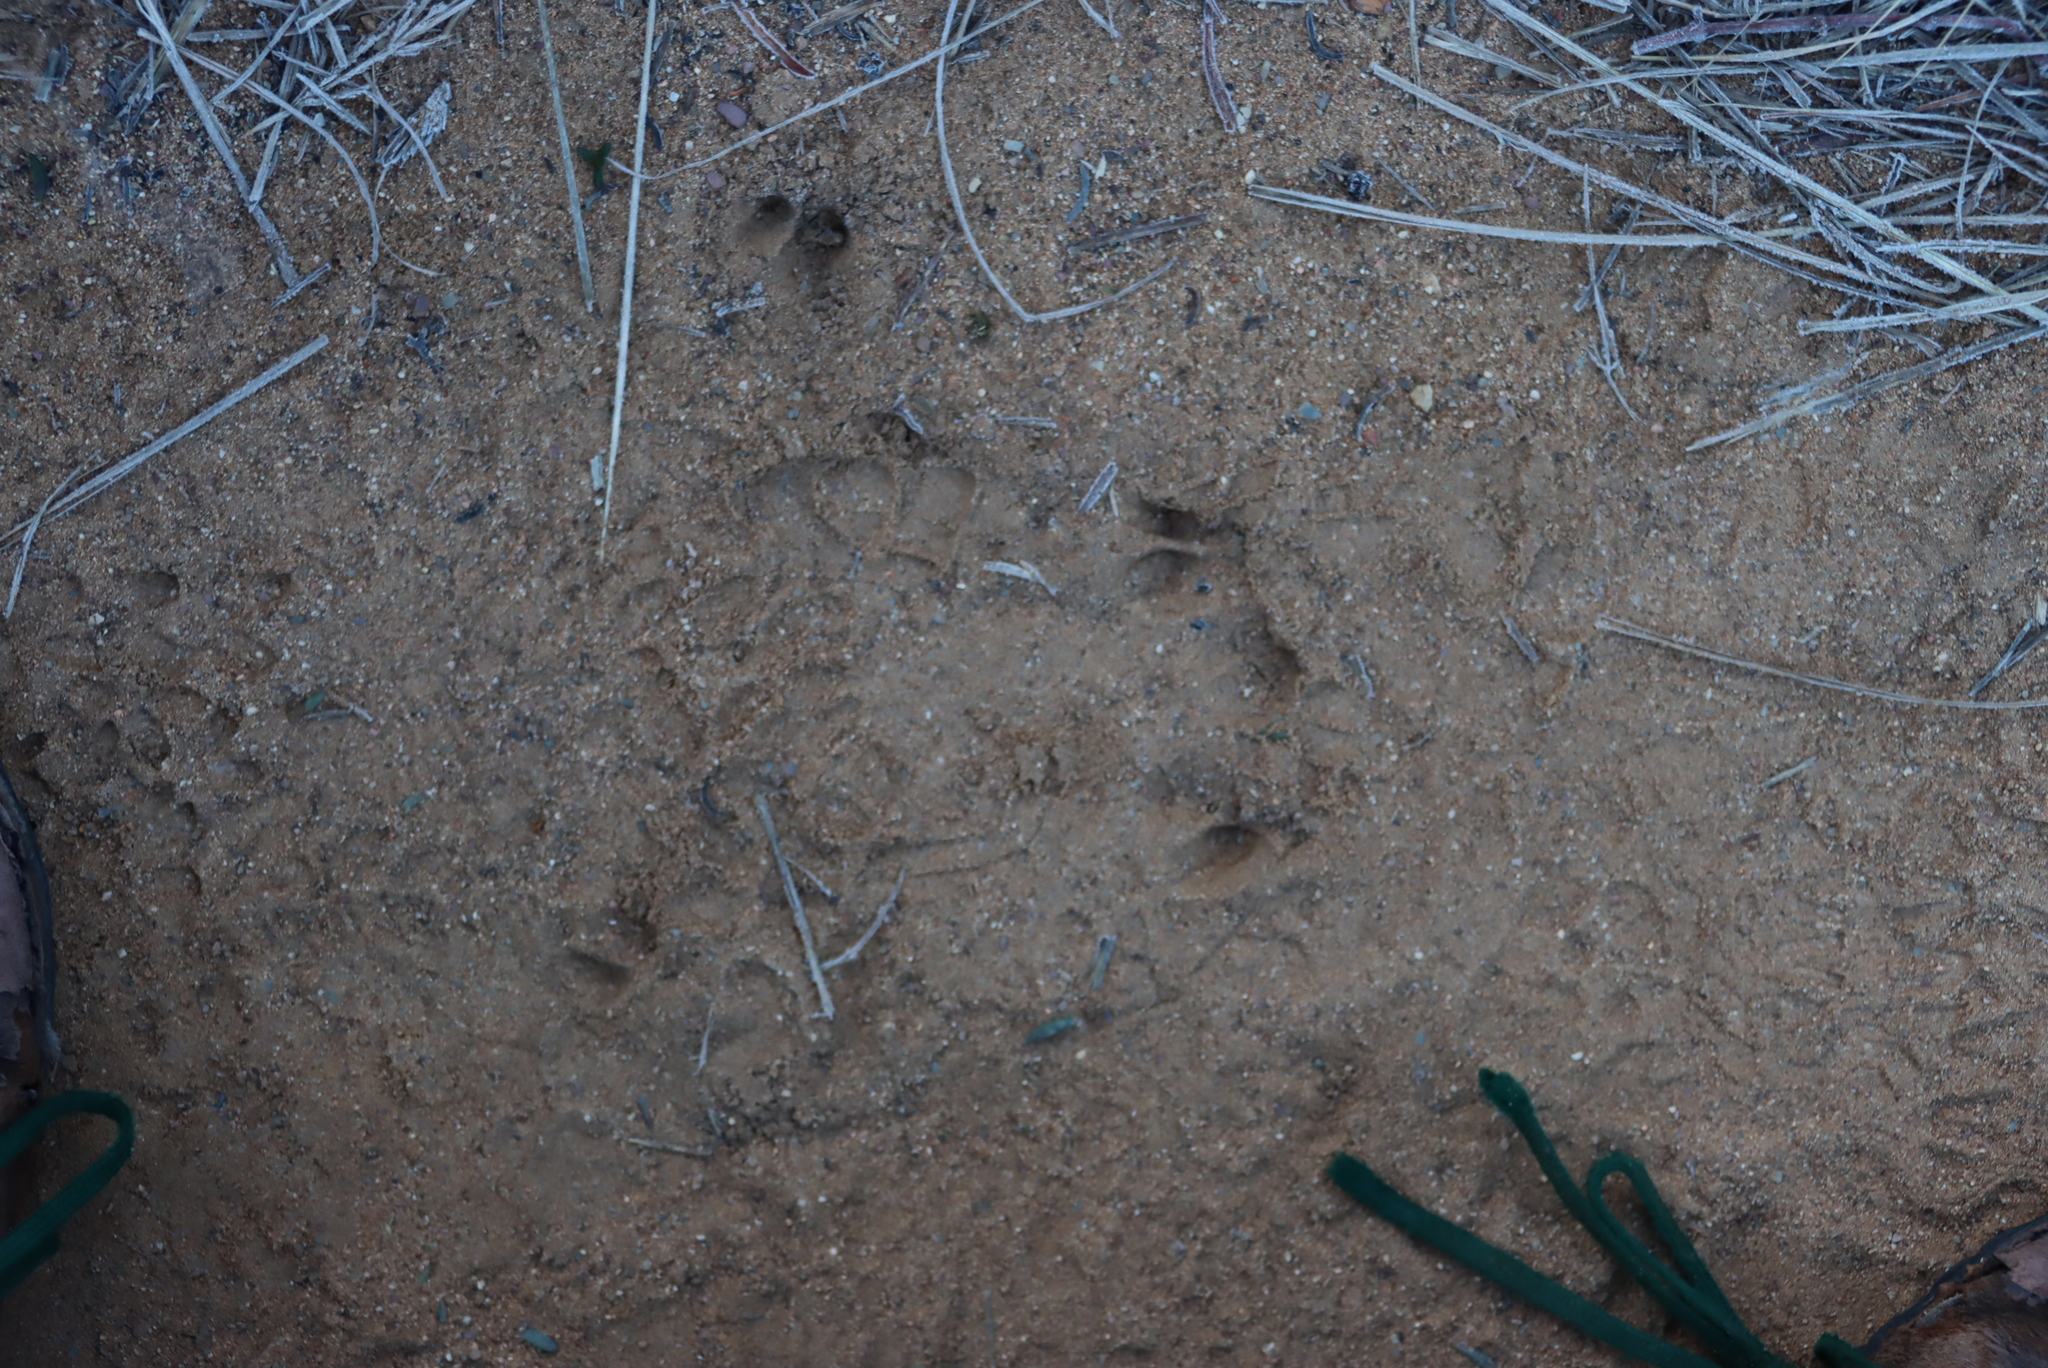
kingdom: Animalia
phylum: Chordata
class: Mammalia
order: Artiodactyla
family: Bovidae
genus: Oreotragus
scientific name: Oreotragus oreotragus
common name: Klipspringer
